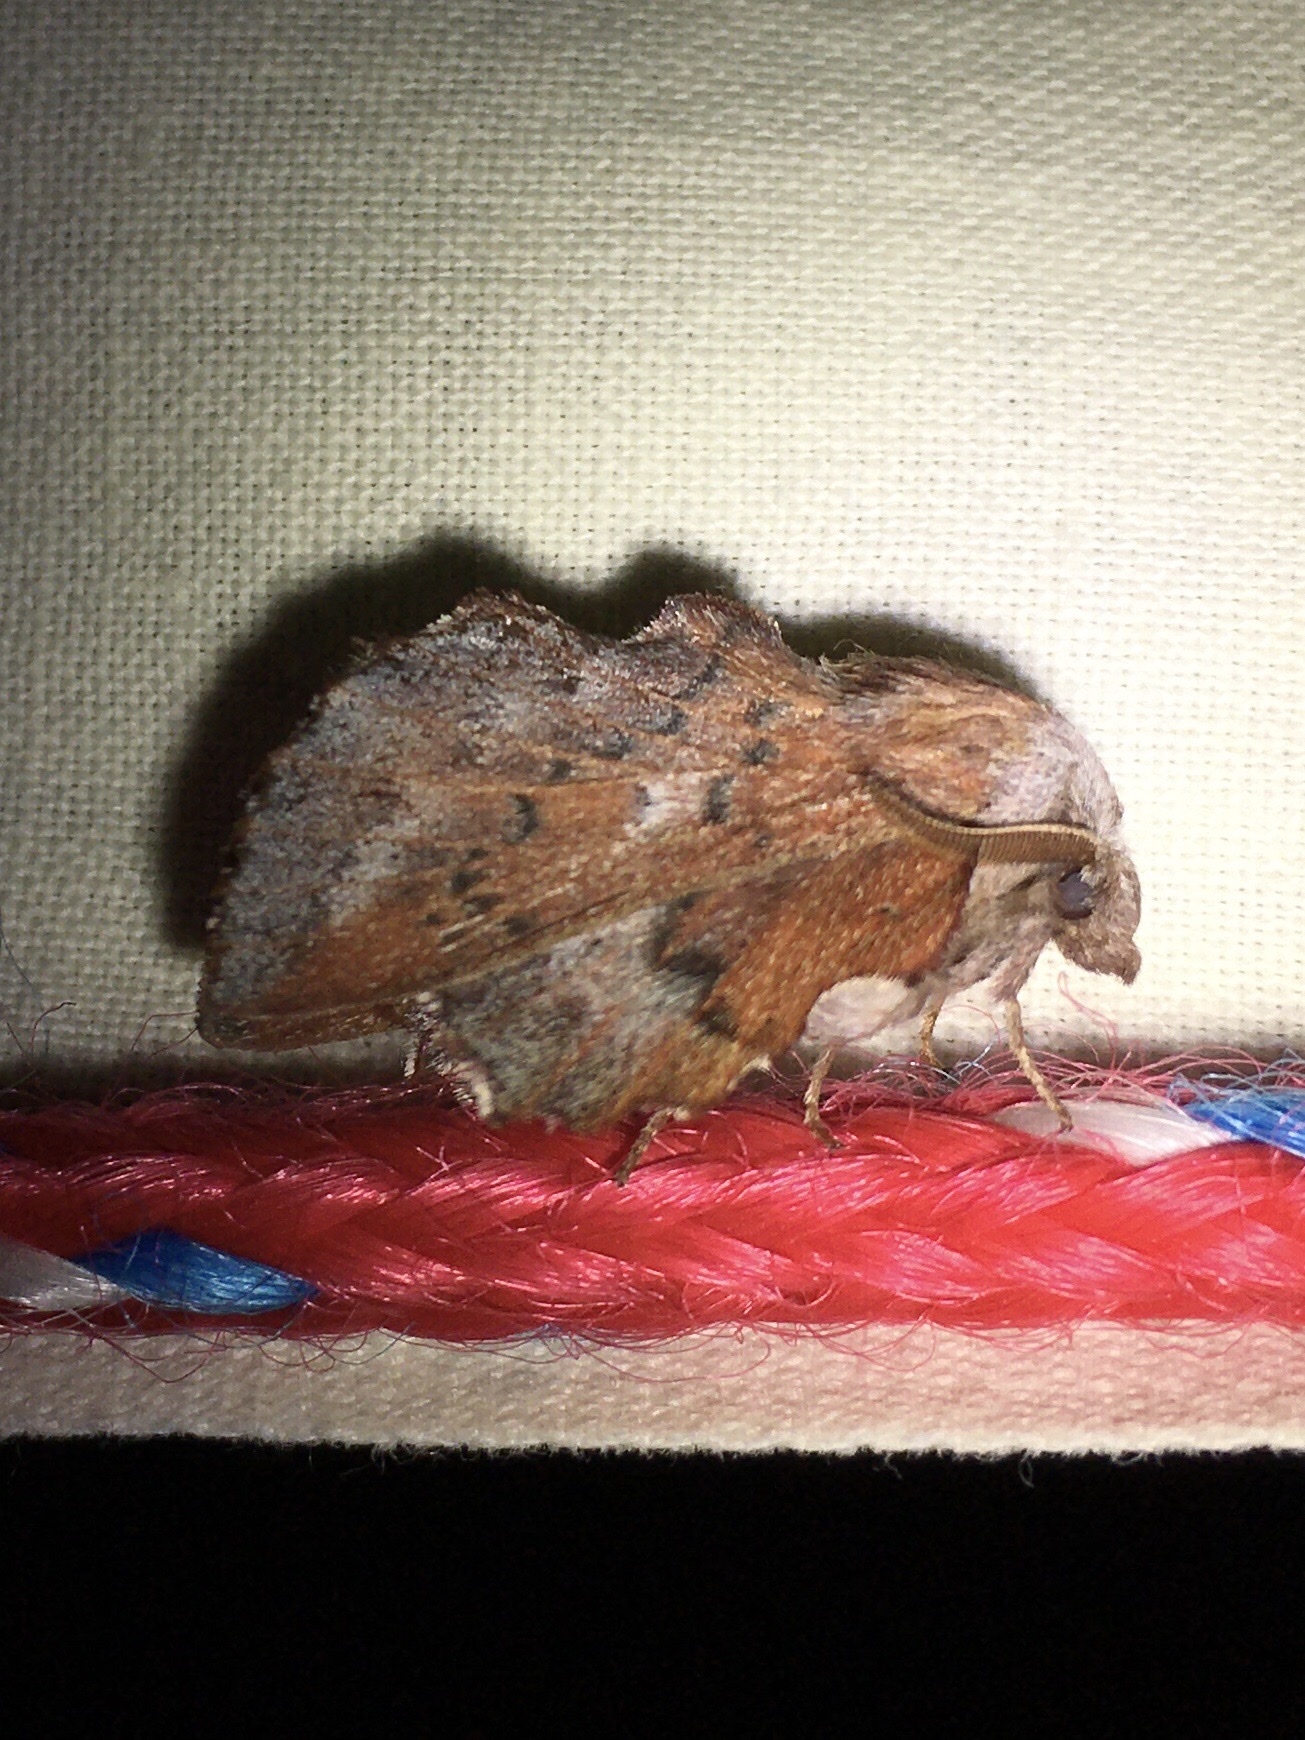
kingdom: Animalia
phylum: Arthropoda
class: Insecta
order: Lepidoptera
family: Lasiocampidae
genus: Phyllodesma
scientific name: Phyllodesma americana
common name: American lappet moth
